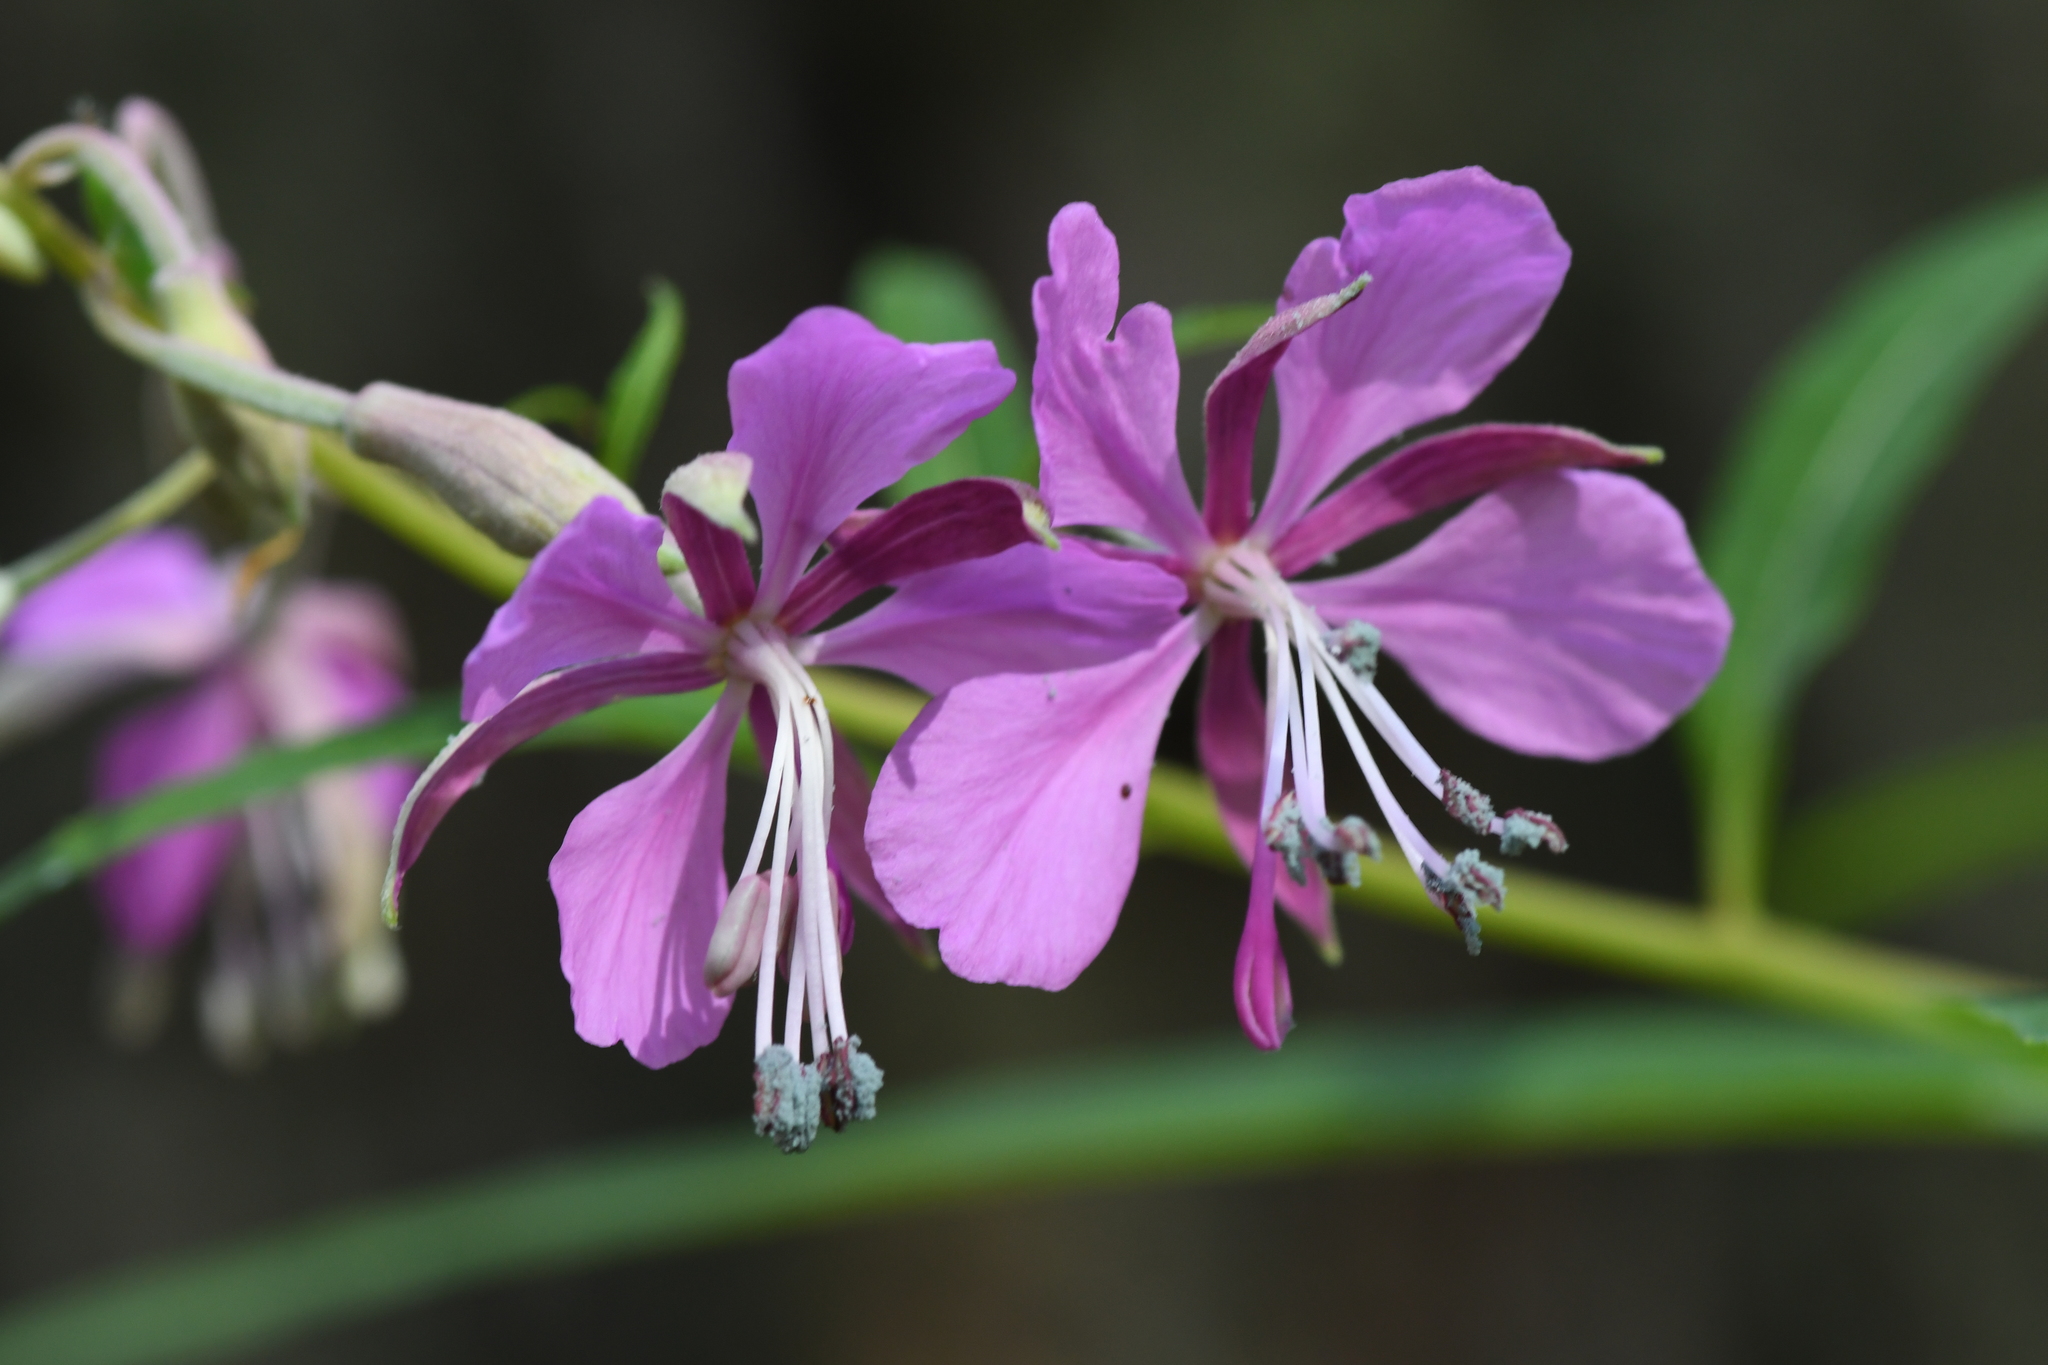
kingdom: Plantae
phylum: Tracheophyta
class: Magnoliopsida
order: Myrtales
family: Onagraceae
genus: Chamaenerion
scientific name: Chamaenerion angustifolium
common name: Fireweed
